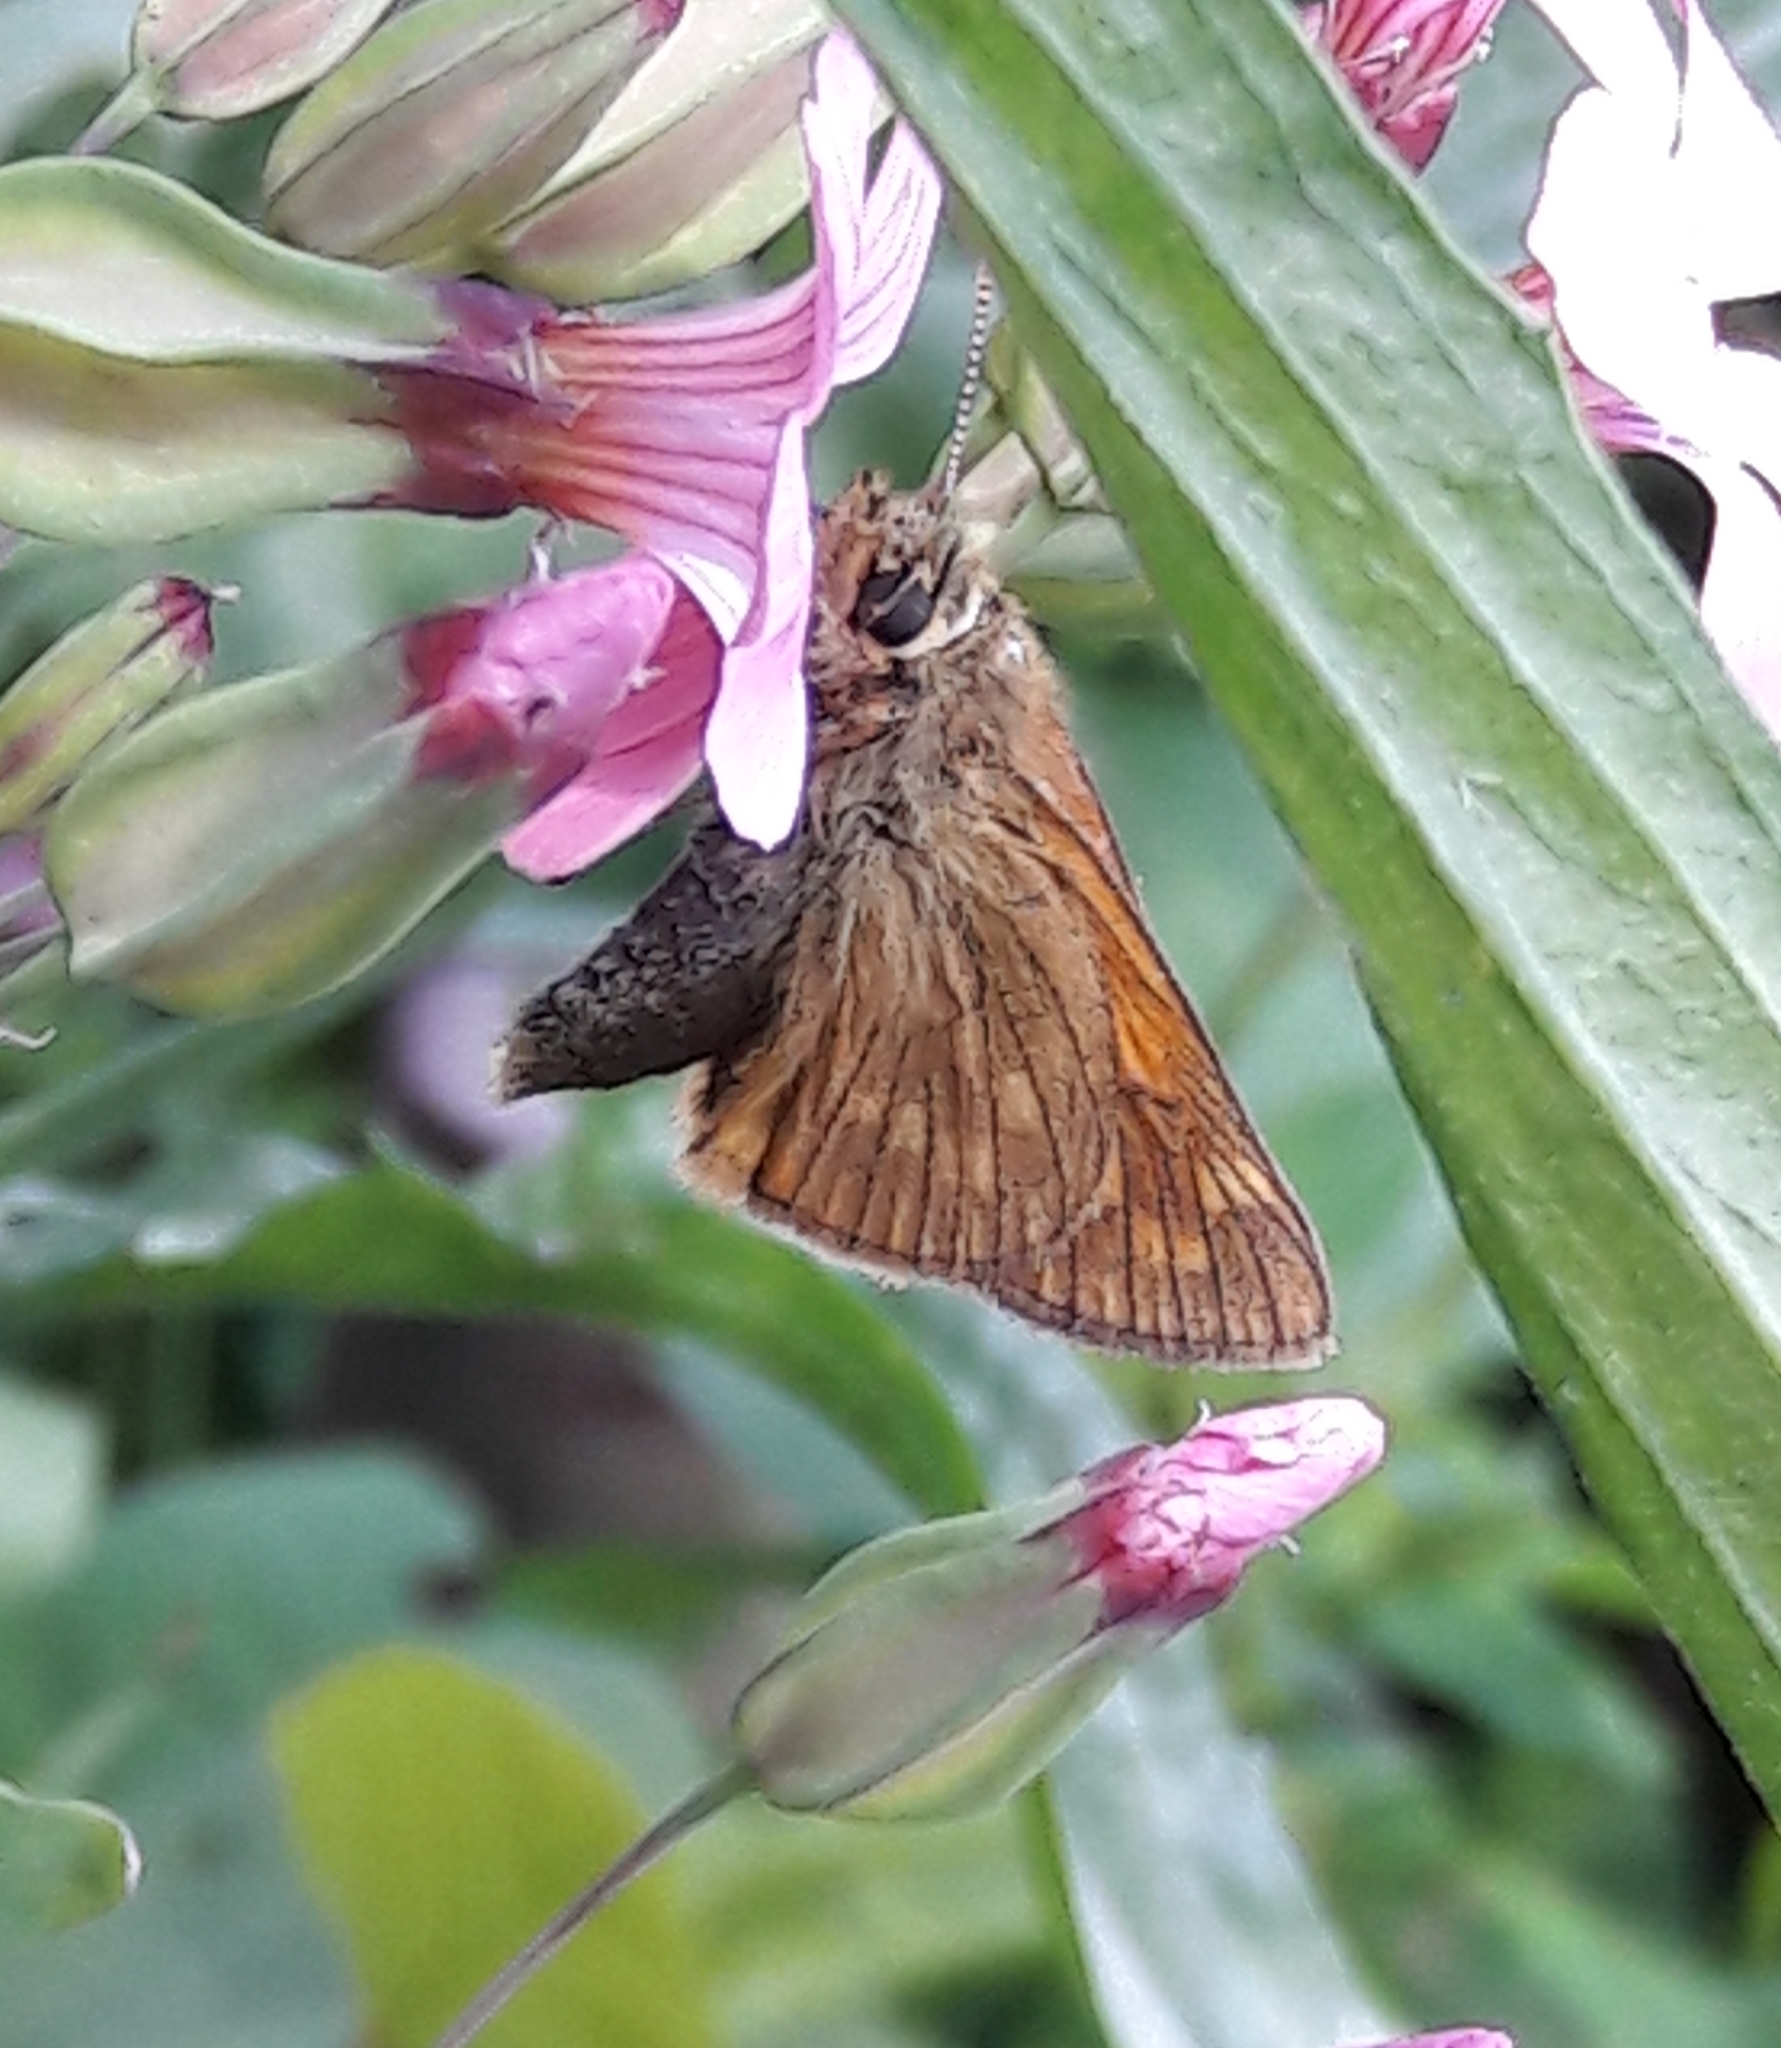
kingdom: Animalia
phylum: Arthropoda
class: Insecta
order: Lepidoptera
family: Hesperiidae
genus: Ochlodes
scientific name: Ochlodes venata
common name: Large skipper
